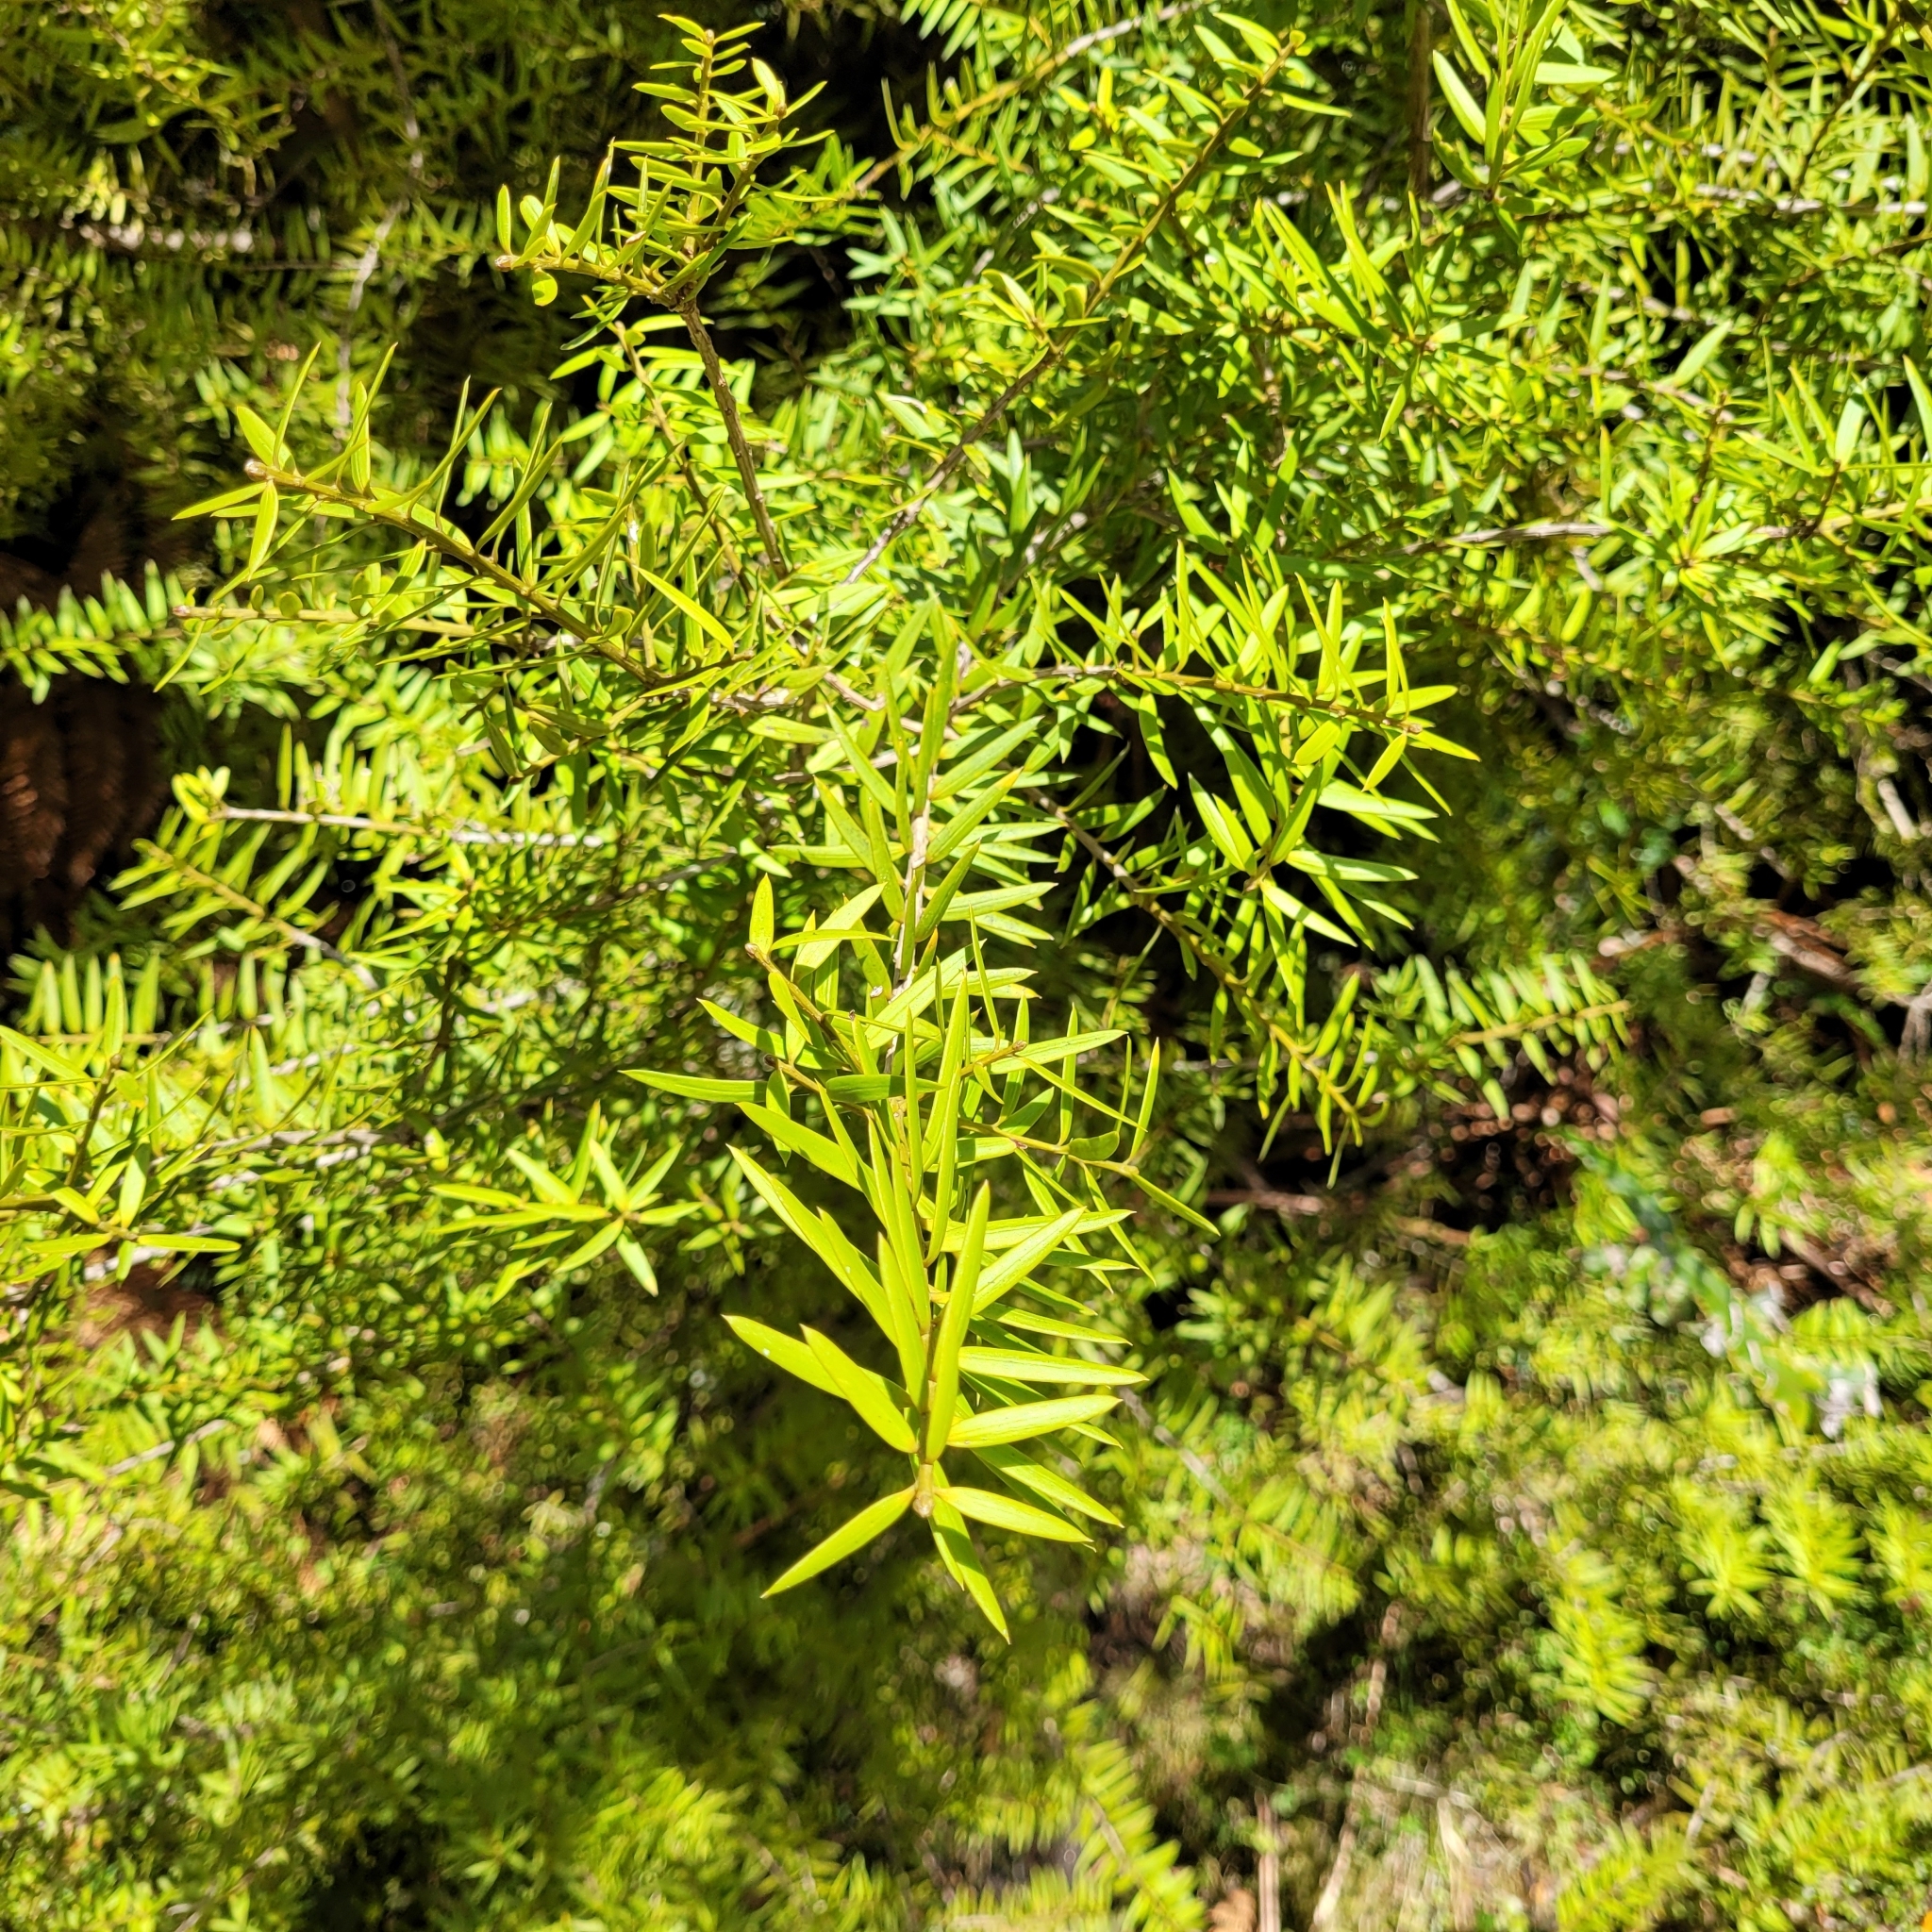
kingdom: Plantae
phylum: Tracheophyta
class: Pinopsida
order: Pinales
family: Podocarpaceae
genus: Podocarpus
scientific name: Podocarpus laetus
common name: Hall's totara
